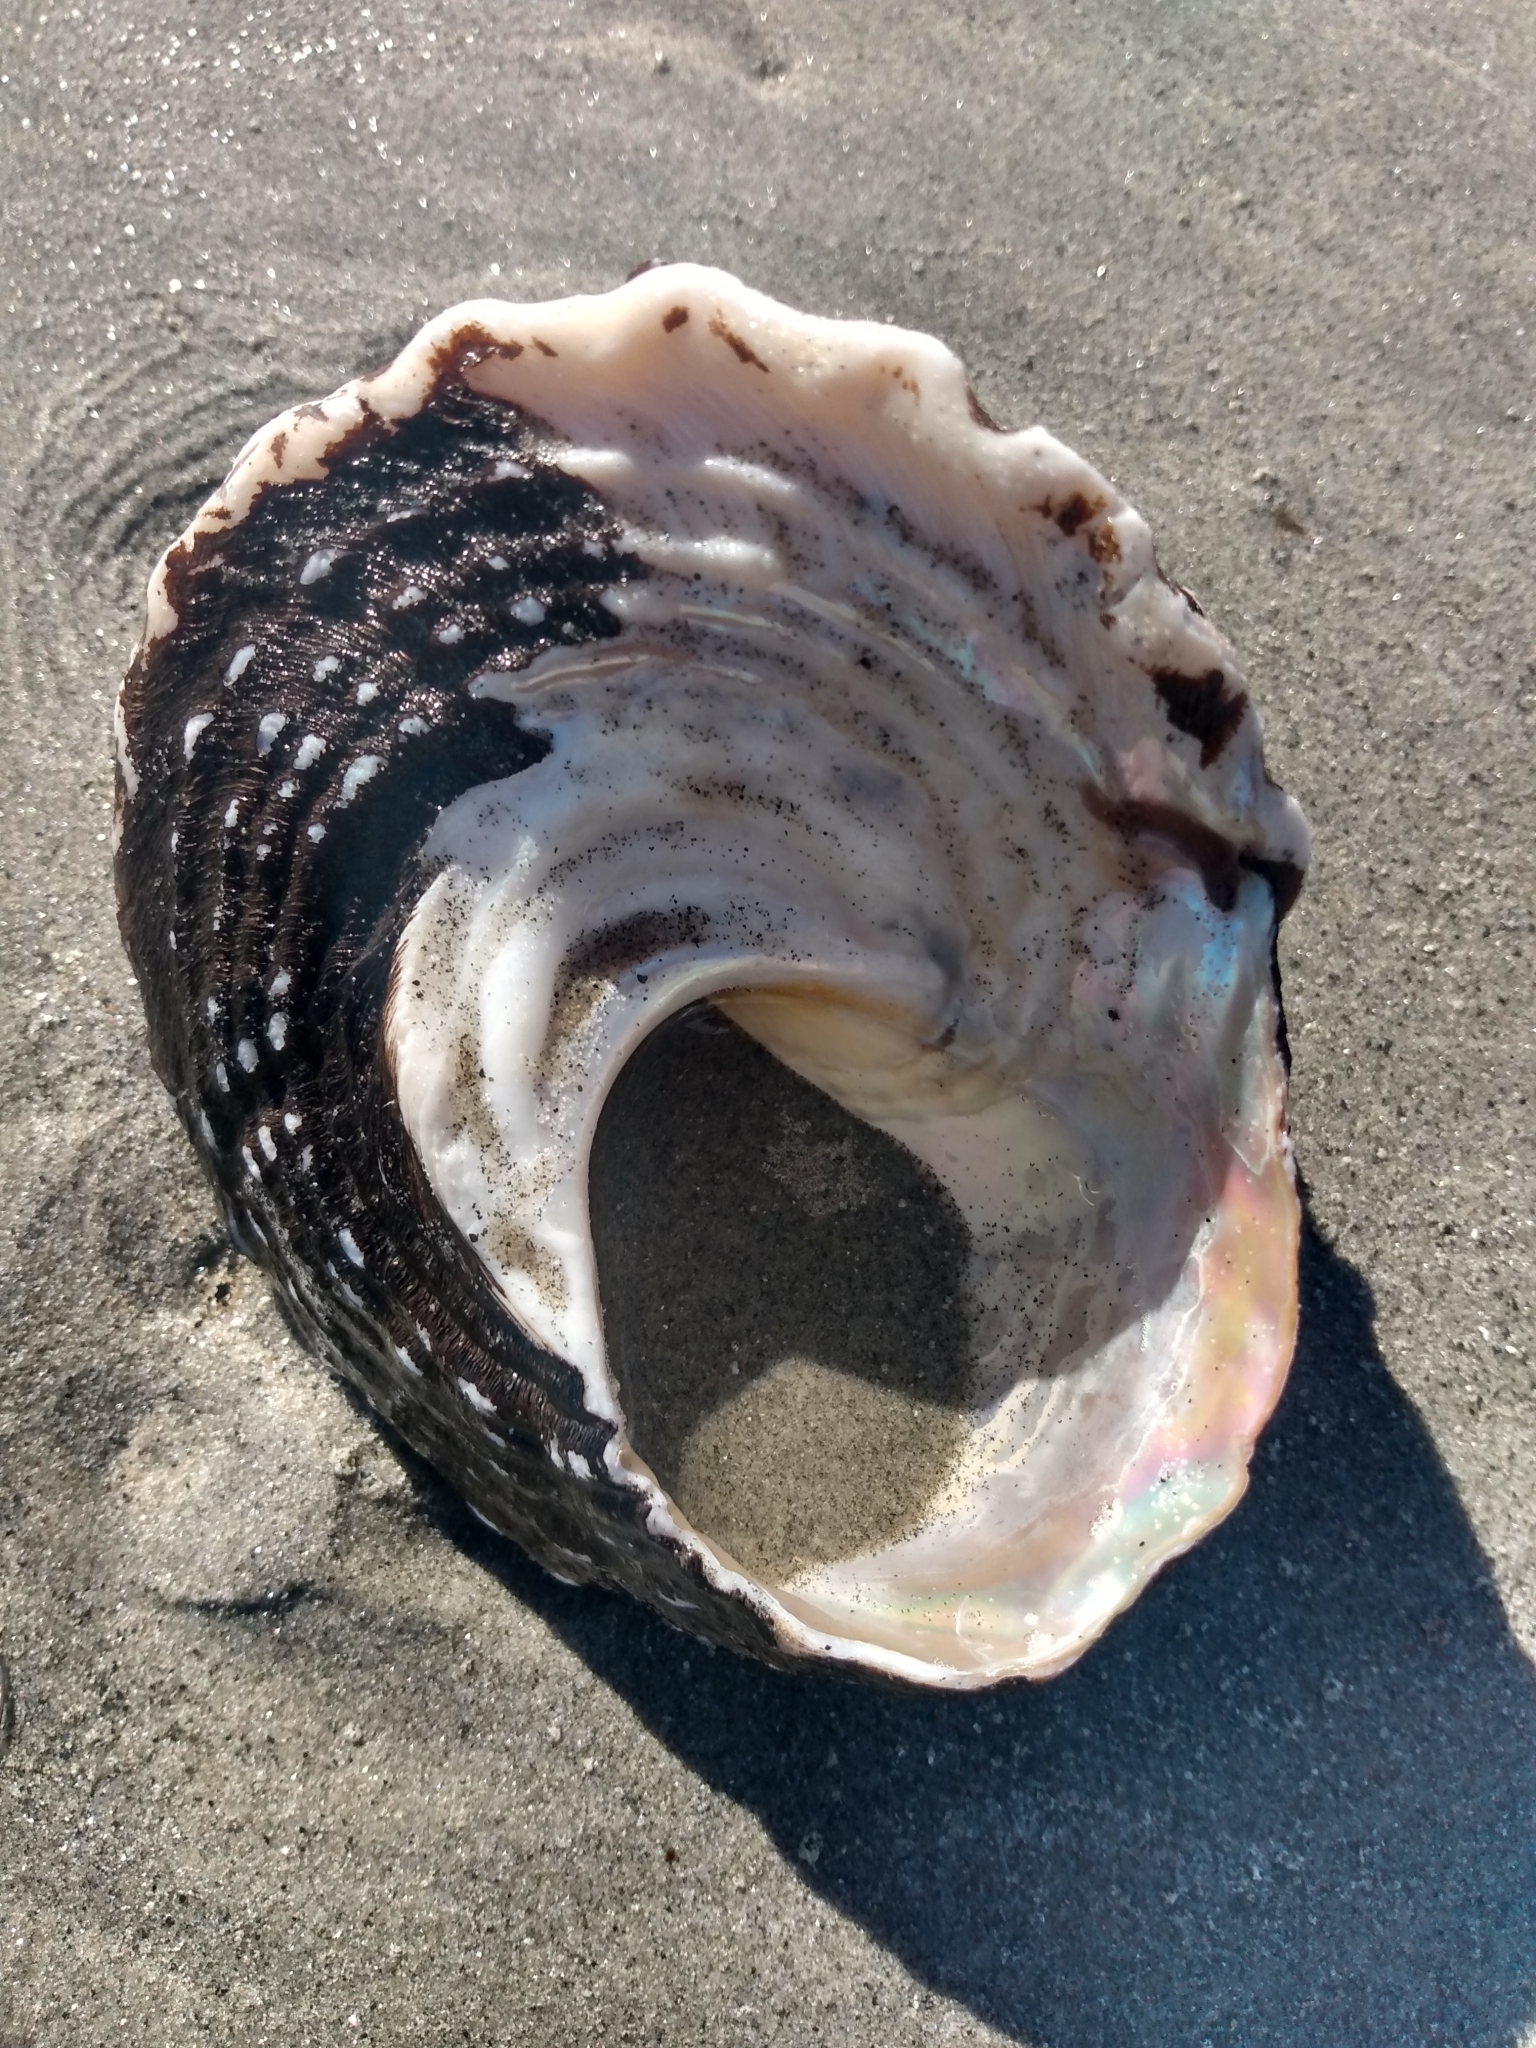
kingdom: Animalia
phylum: Mollusca
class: Gastropoda
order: Trochida
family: Turbinidae
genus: Megastraea
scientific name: Megastraea undosa
